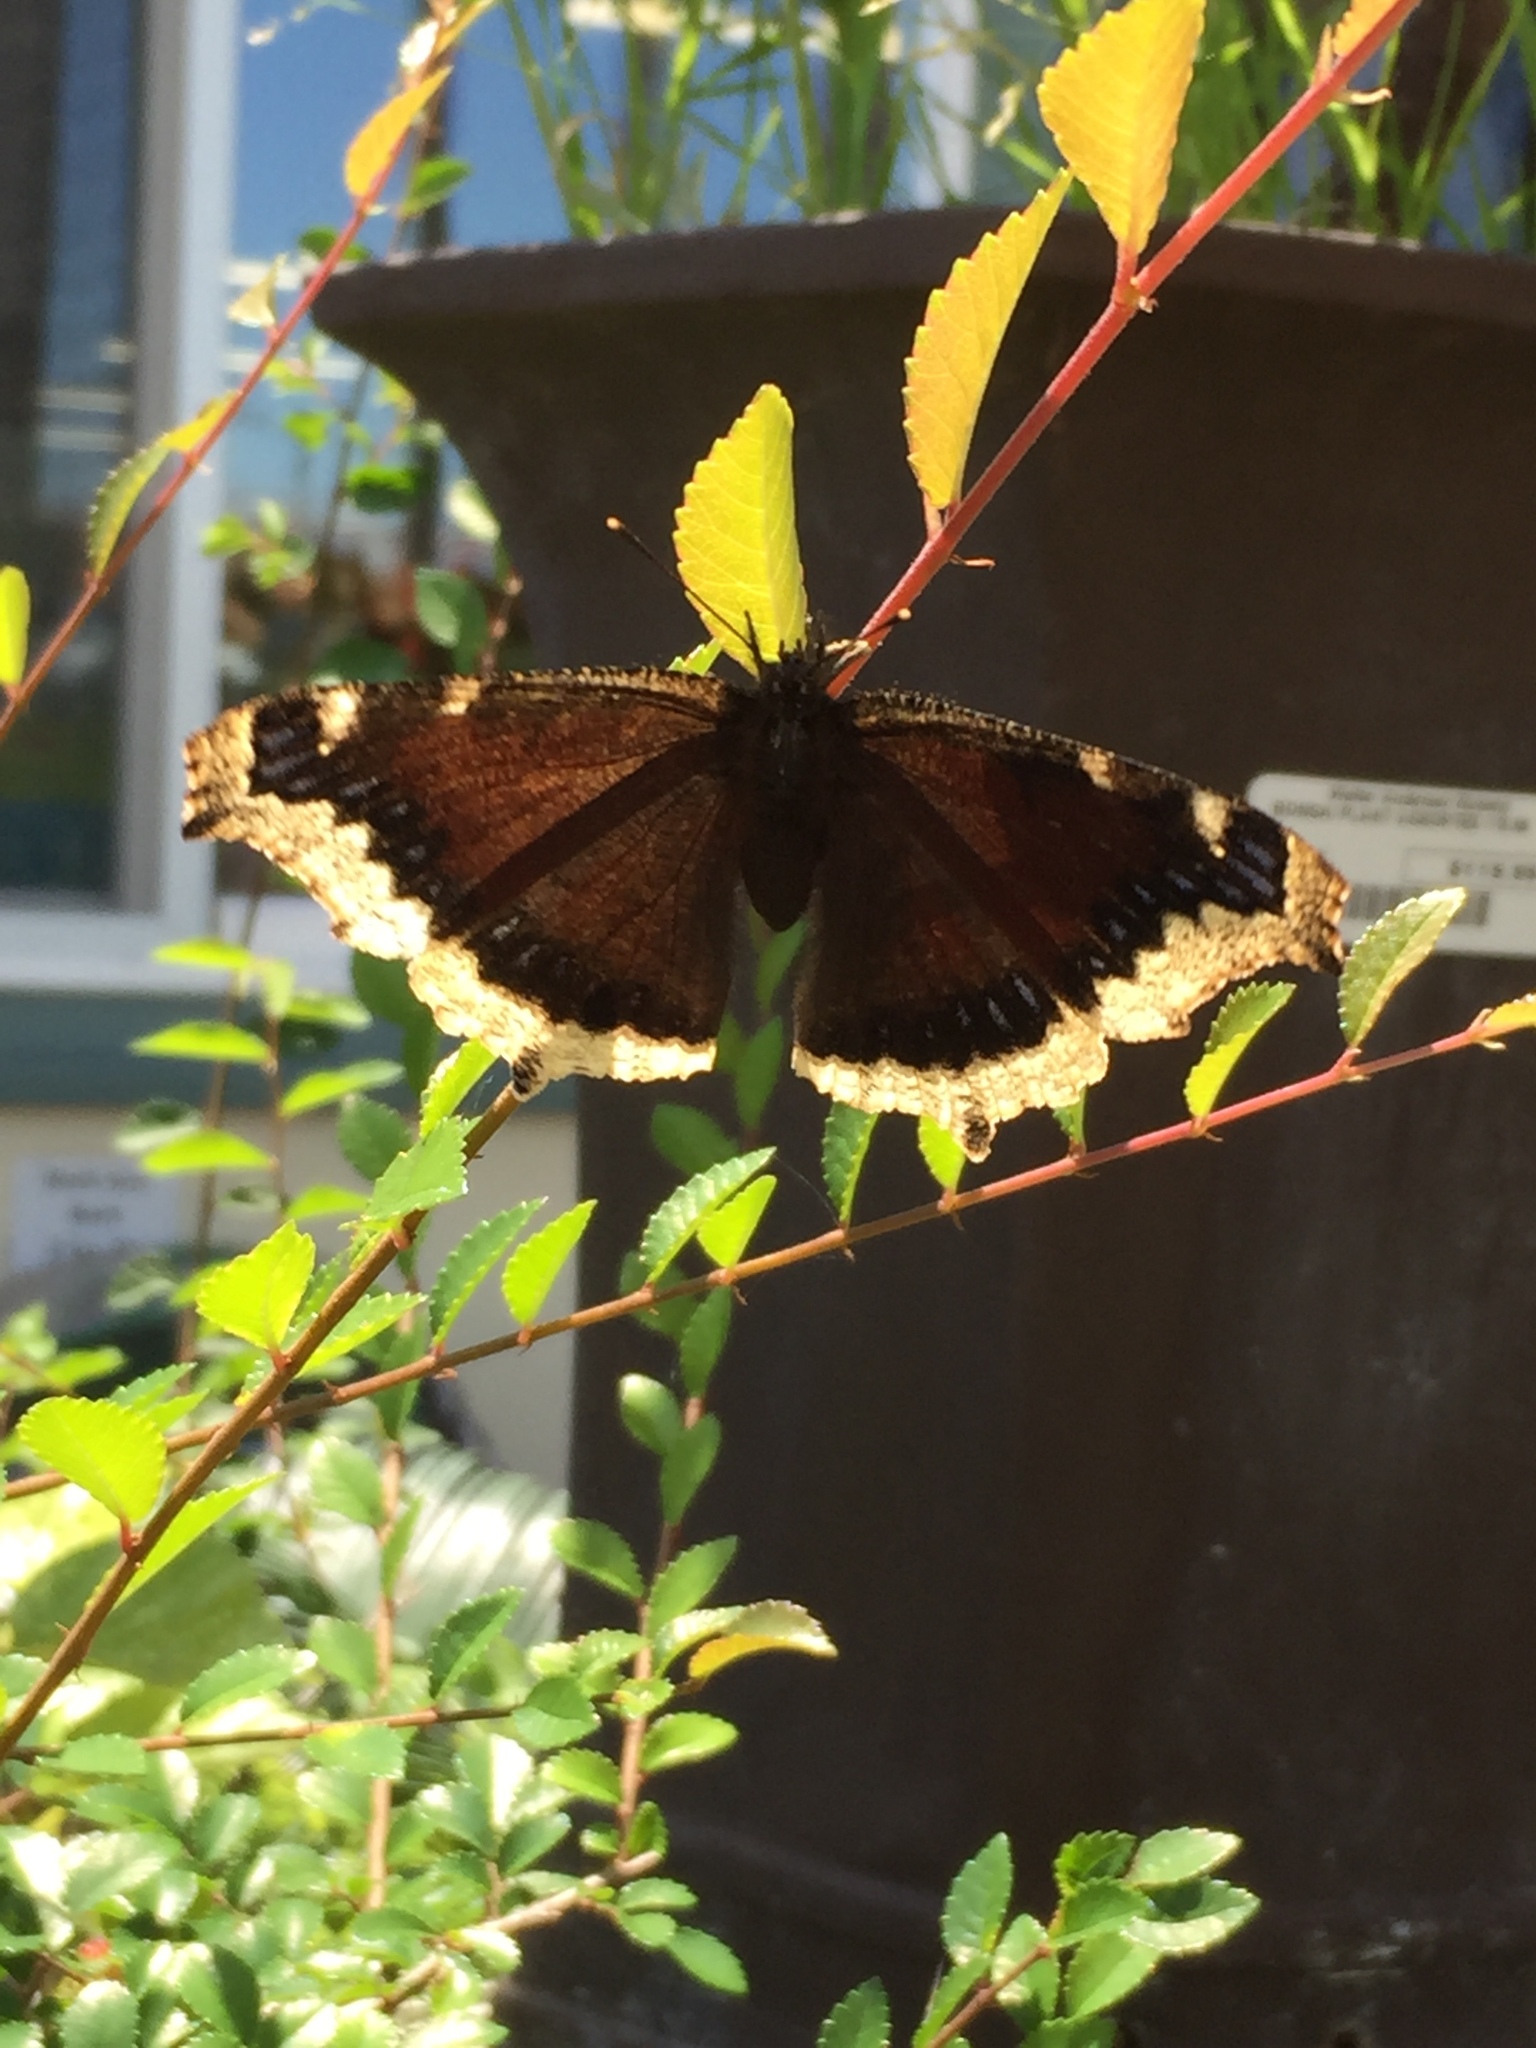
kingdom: Animalia
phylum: Arthropoda
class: Insecta
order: Lepidoptera
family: Nymphalidae
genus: Nymphalis
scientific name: Nymphalis antiopa
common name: Camberwell beauty
